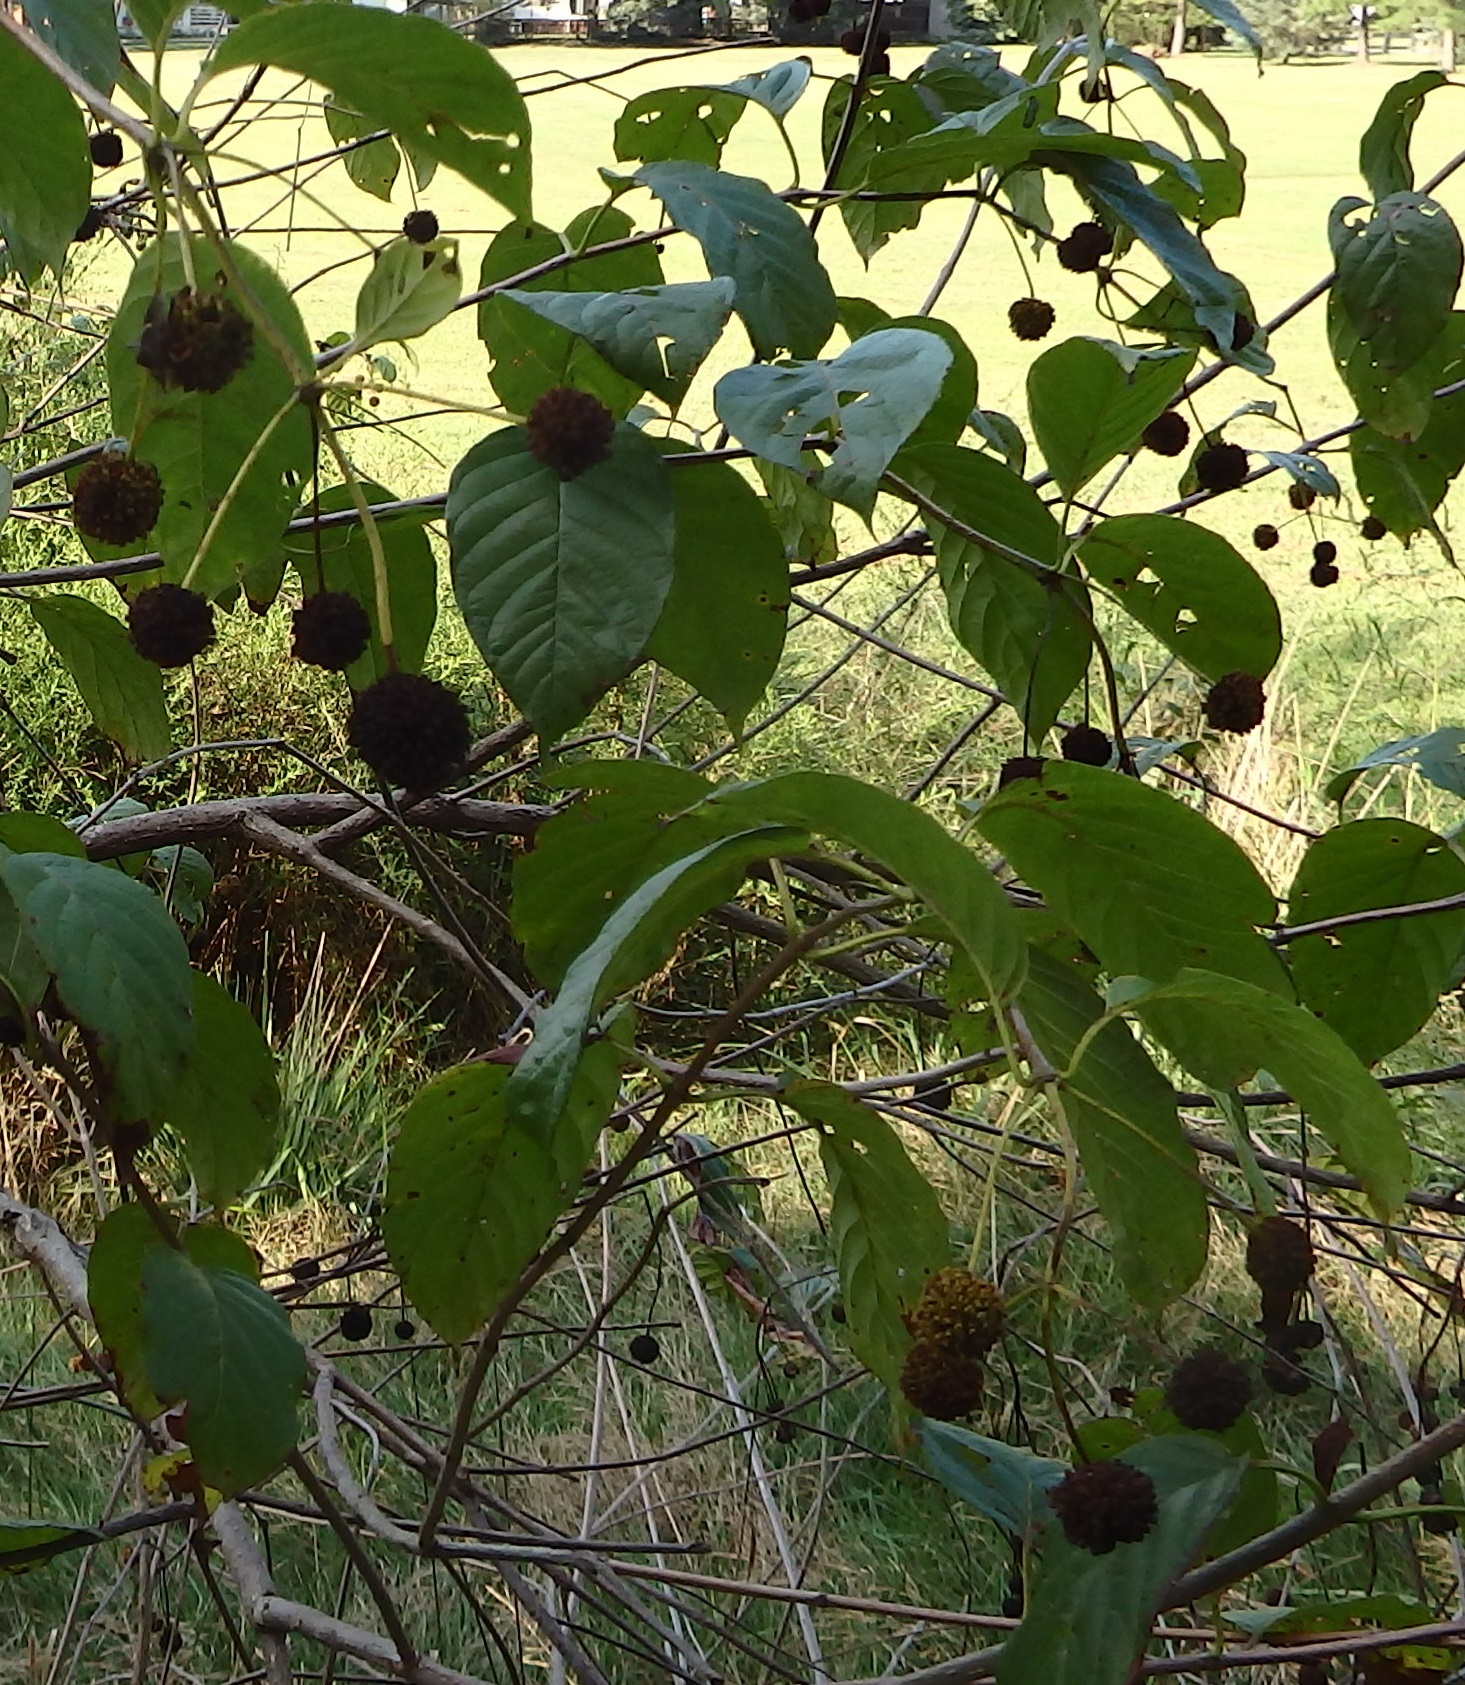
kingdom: Plantae
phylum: Tracheophyta
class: Magnoliopsida
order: Gentianales
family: Rubiaceae
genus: Cephalanthus
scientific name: Cephalanthus occidentalis
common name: Button-willow
